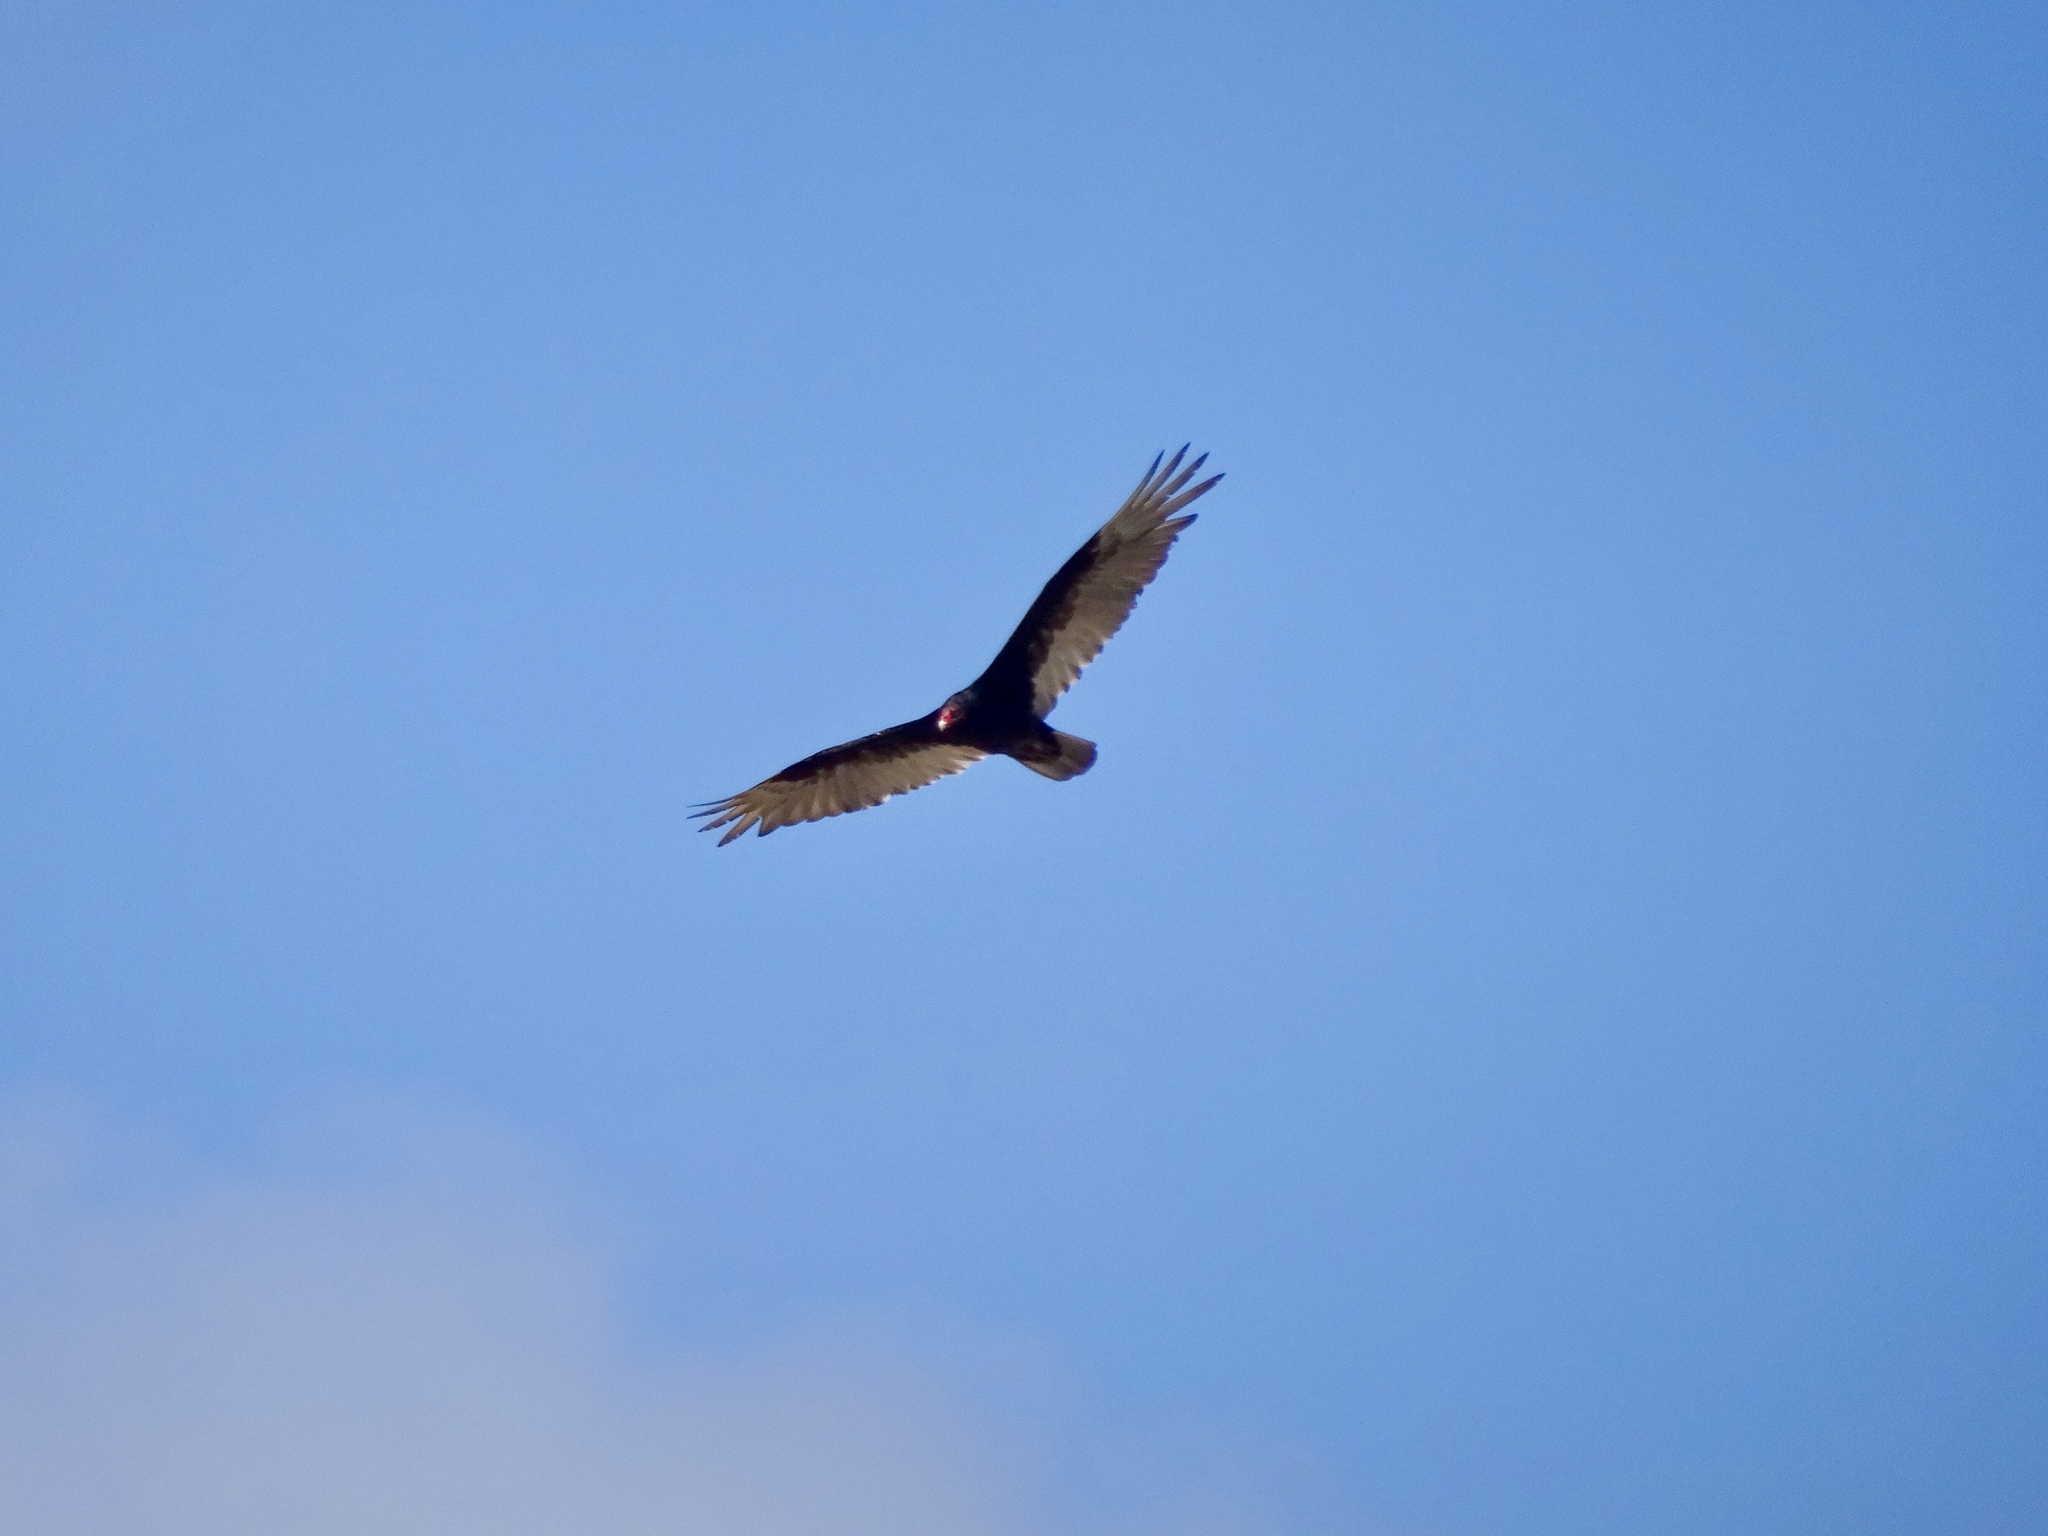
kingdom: Animalia
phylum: Chordata
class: Aves
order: Accipitriformes
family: Cathartidae
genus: Cathartes
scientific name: Cathartes aura
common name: Turkey vulture
